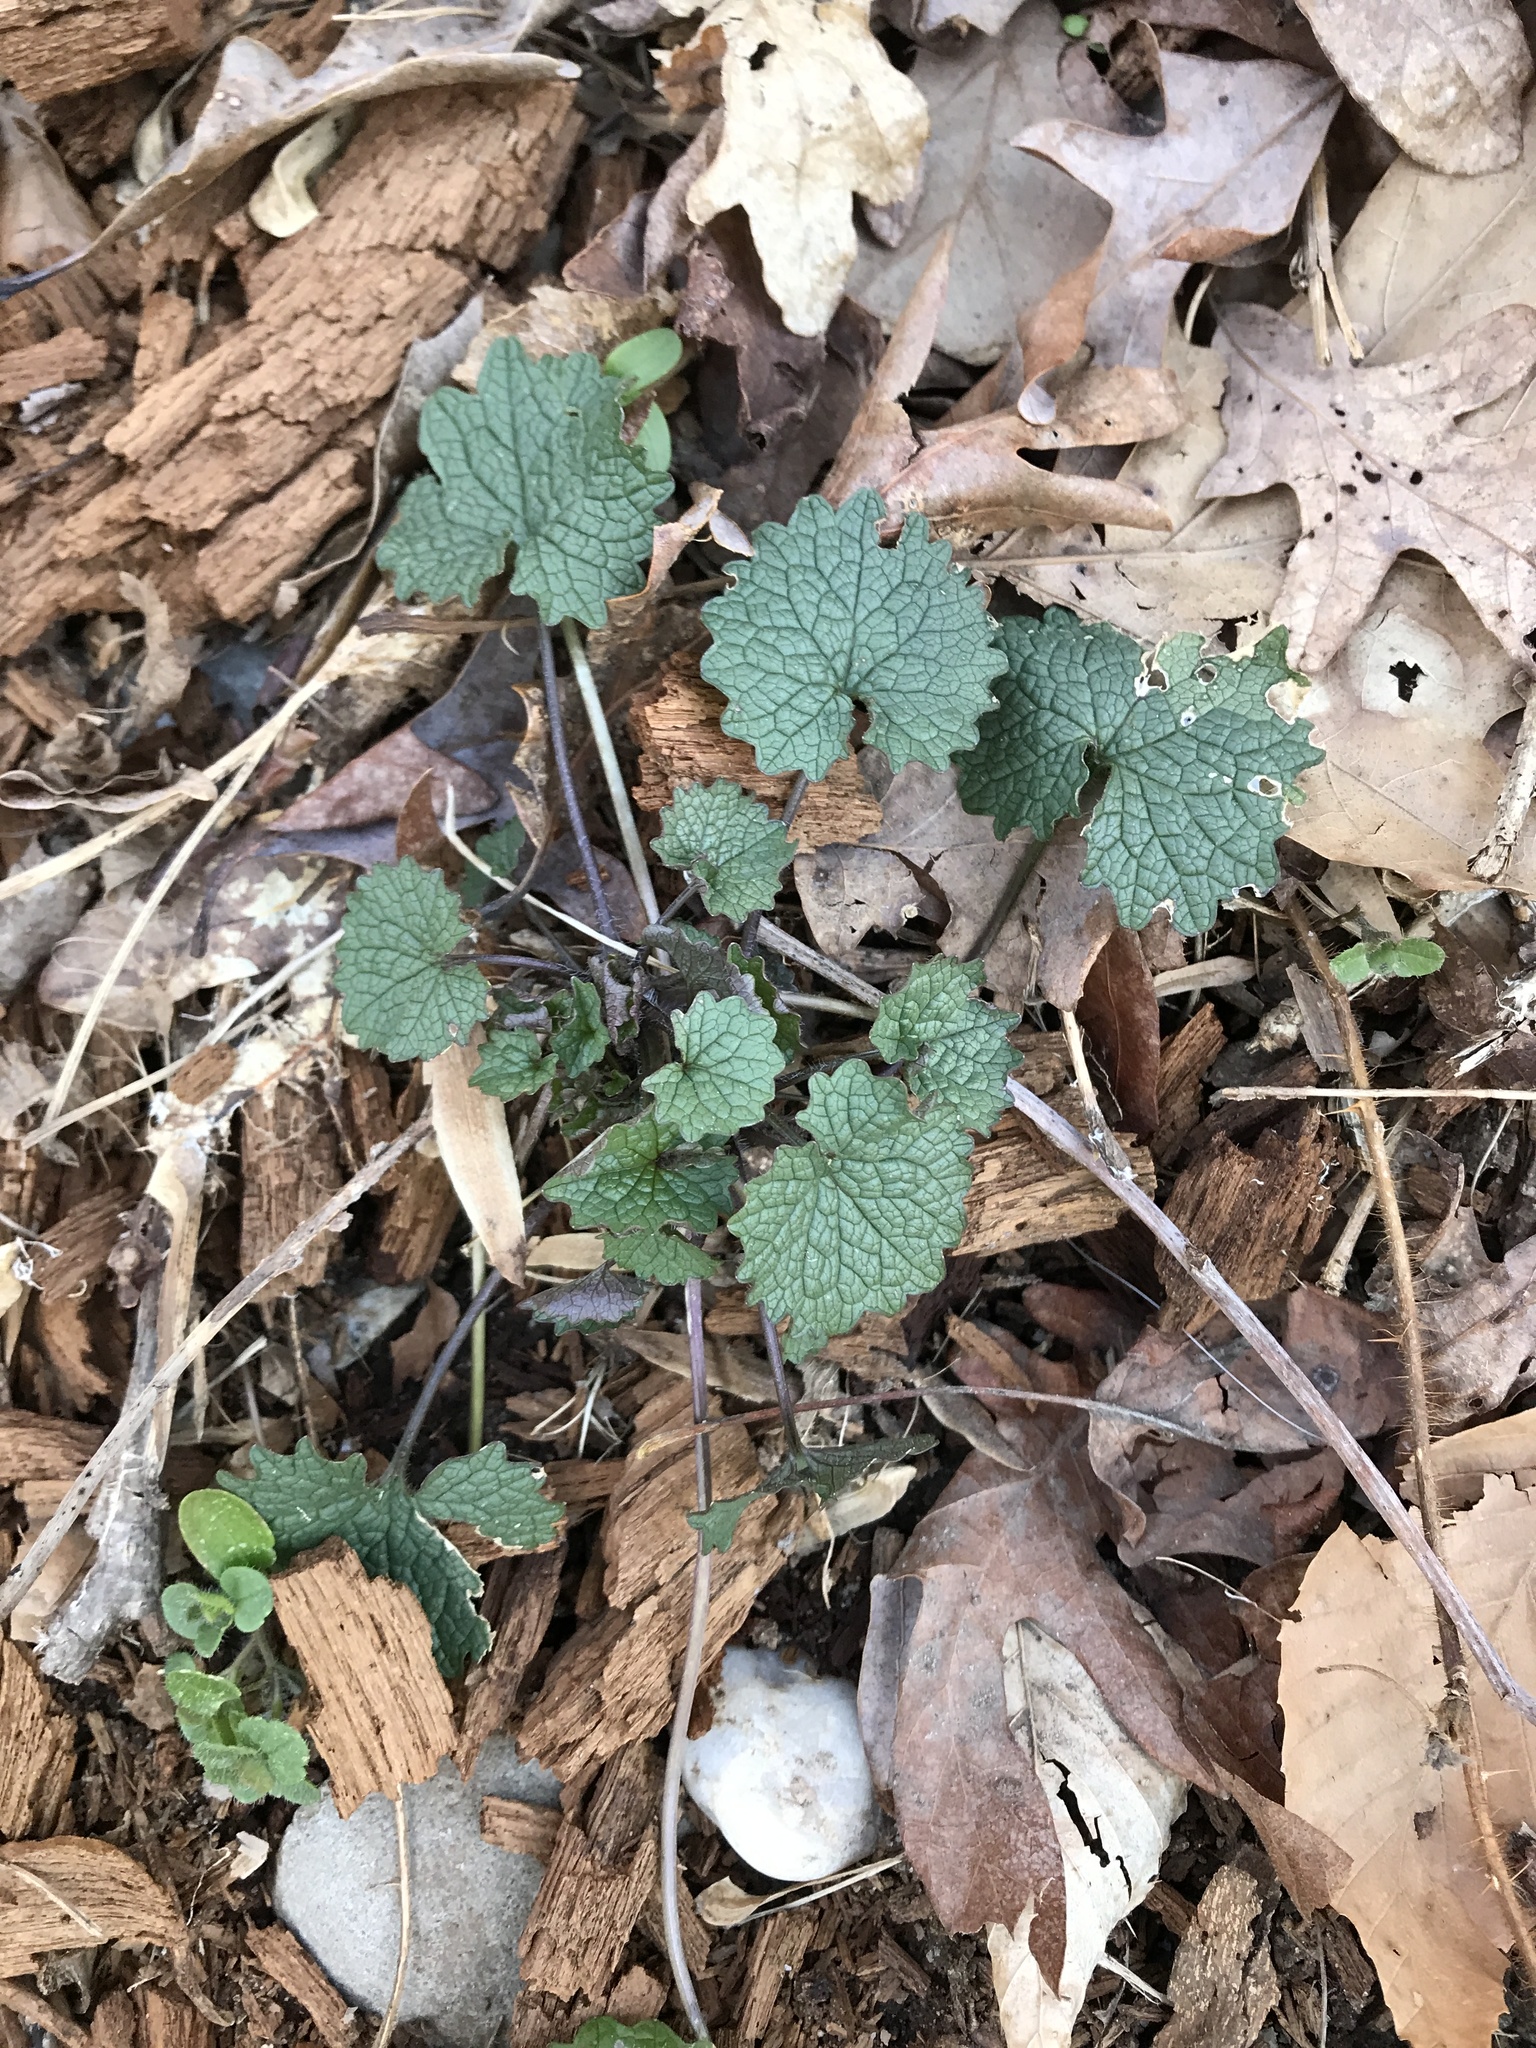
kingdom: Plantae
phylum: Tracheophyta
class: Magnoliopsida
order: Brassicales
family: Brassicaceae
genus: Alliaria
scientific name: Alliaria petiolata
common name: Garlic mustard
